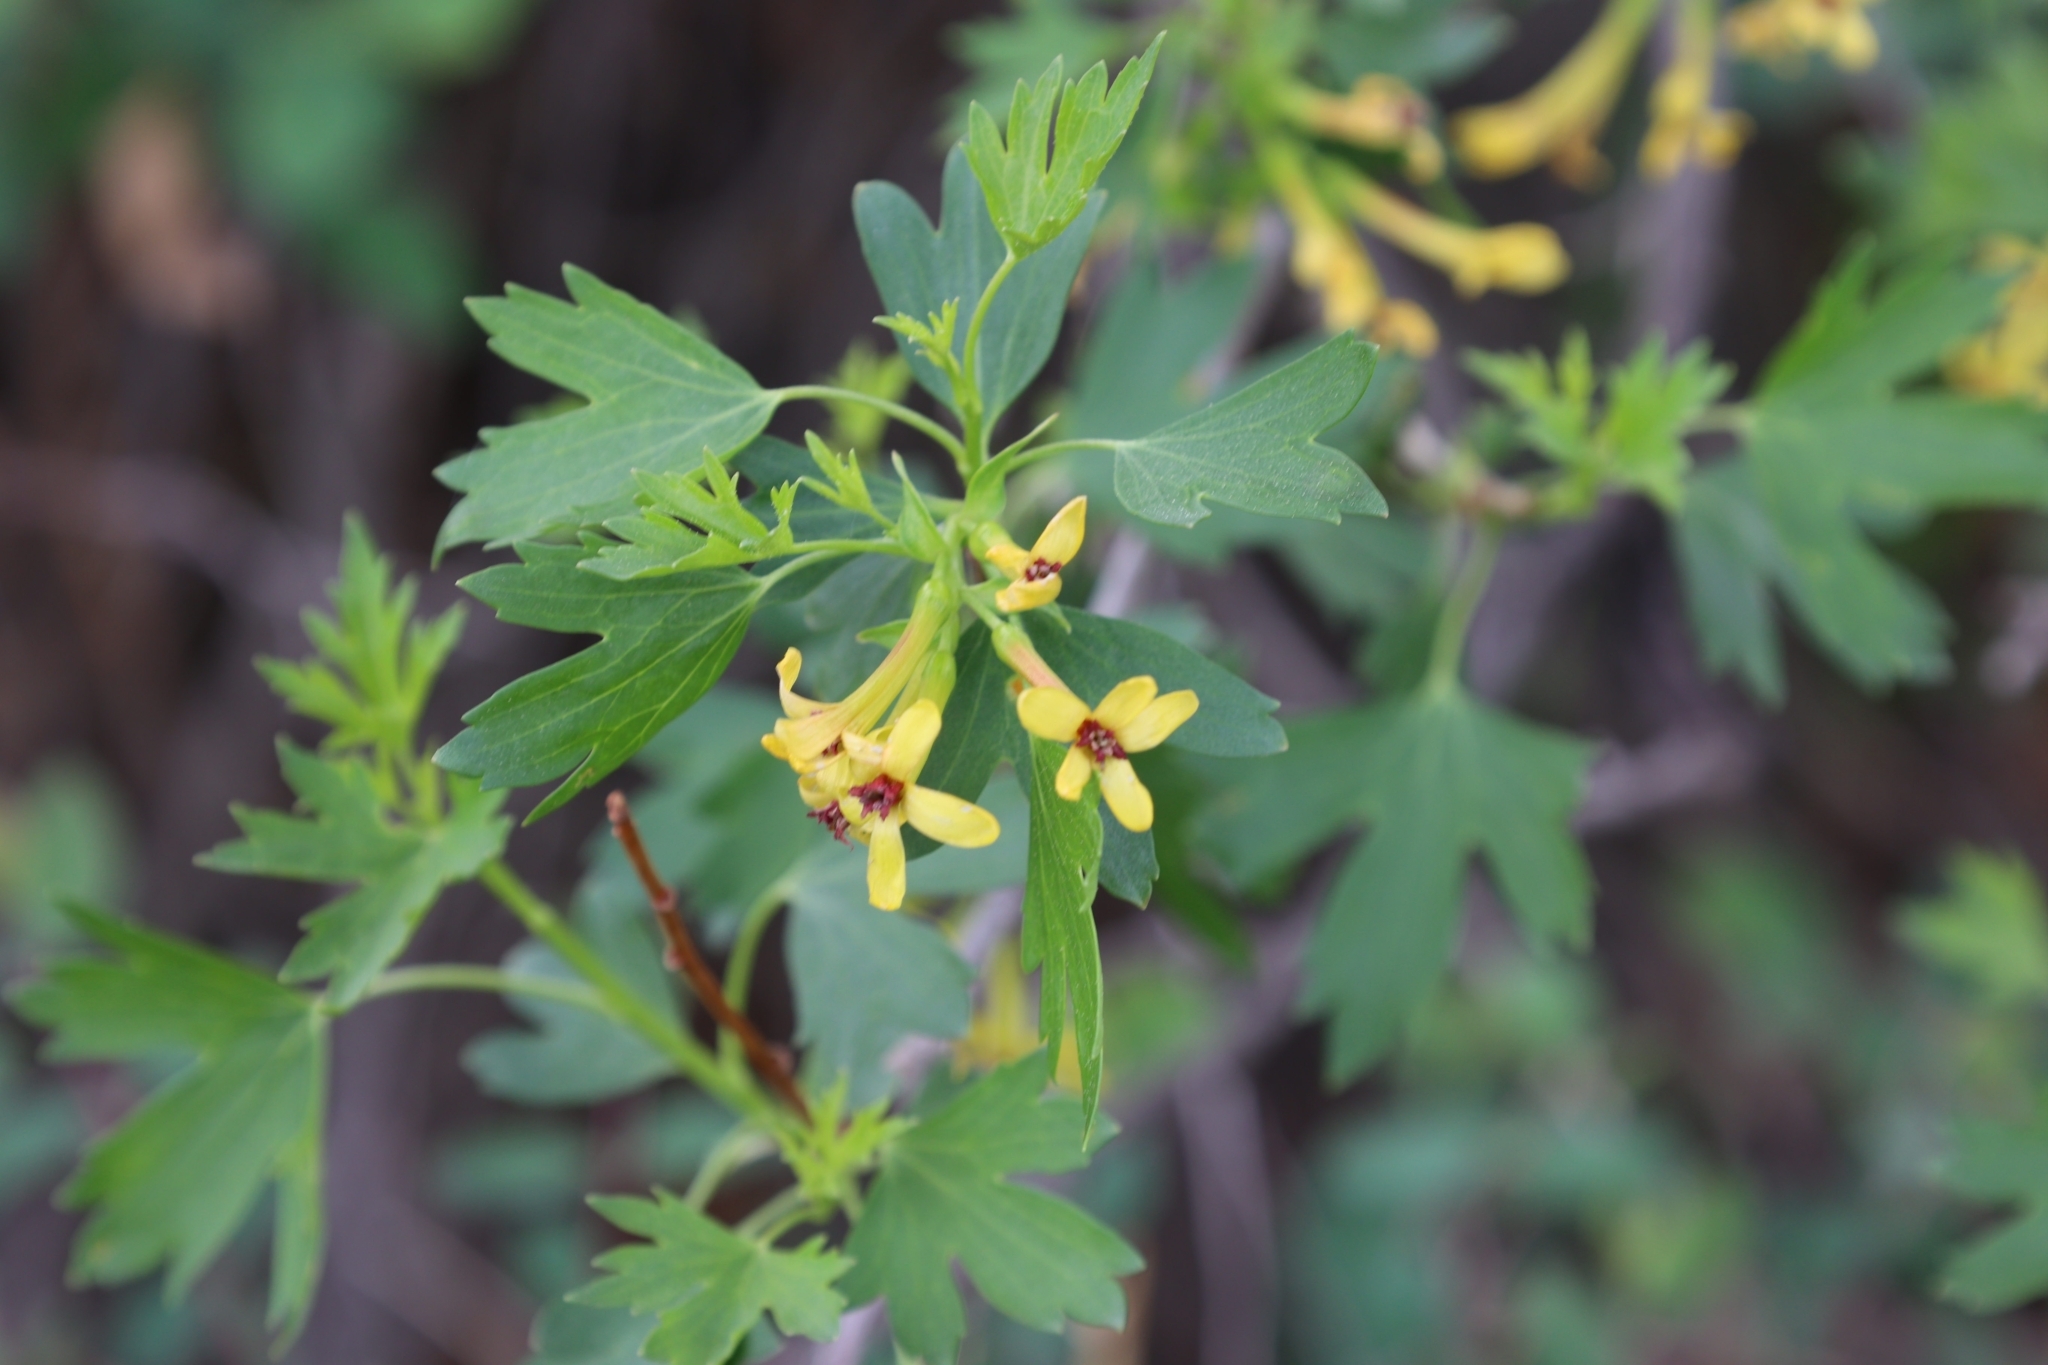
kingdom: Plantae
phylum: Tracheophyta
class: Magnoliopsida
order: Saxifragales
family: Grossulariaceae
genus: Ribes
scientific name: Ribes aureum
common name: Golden currant
